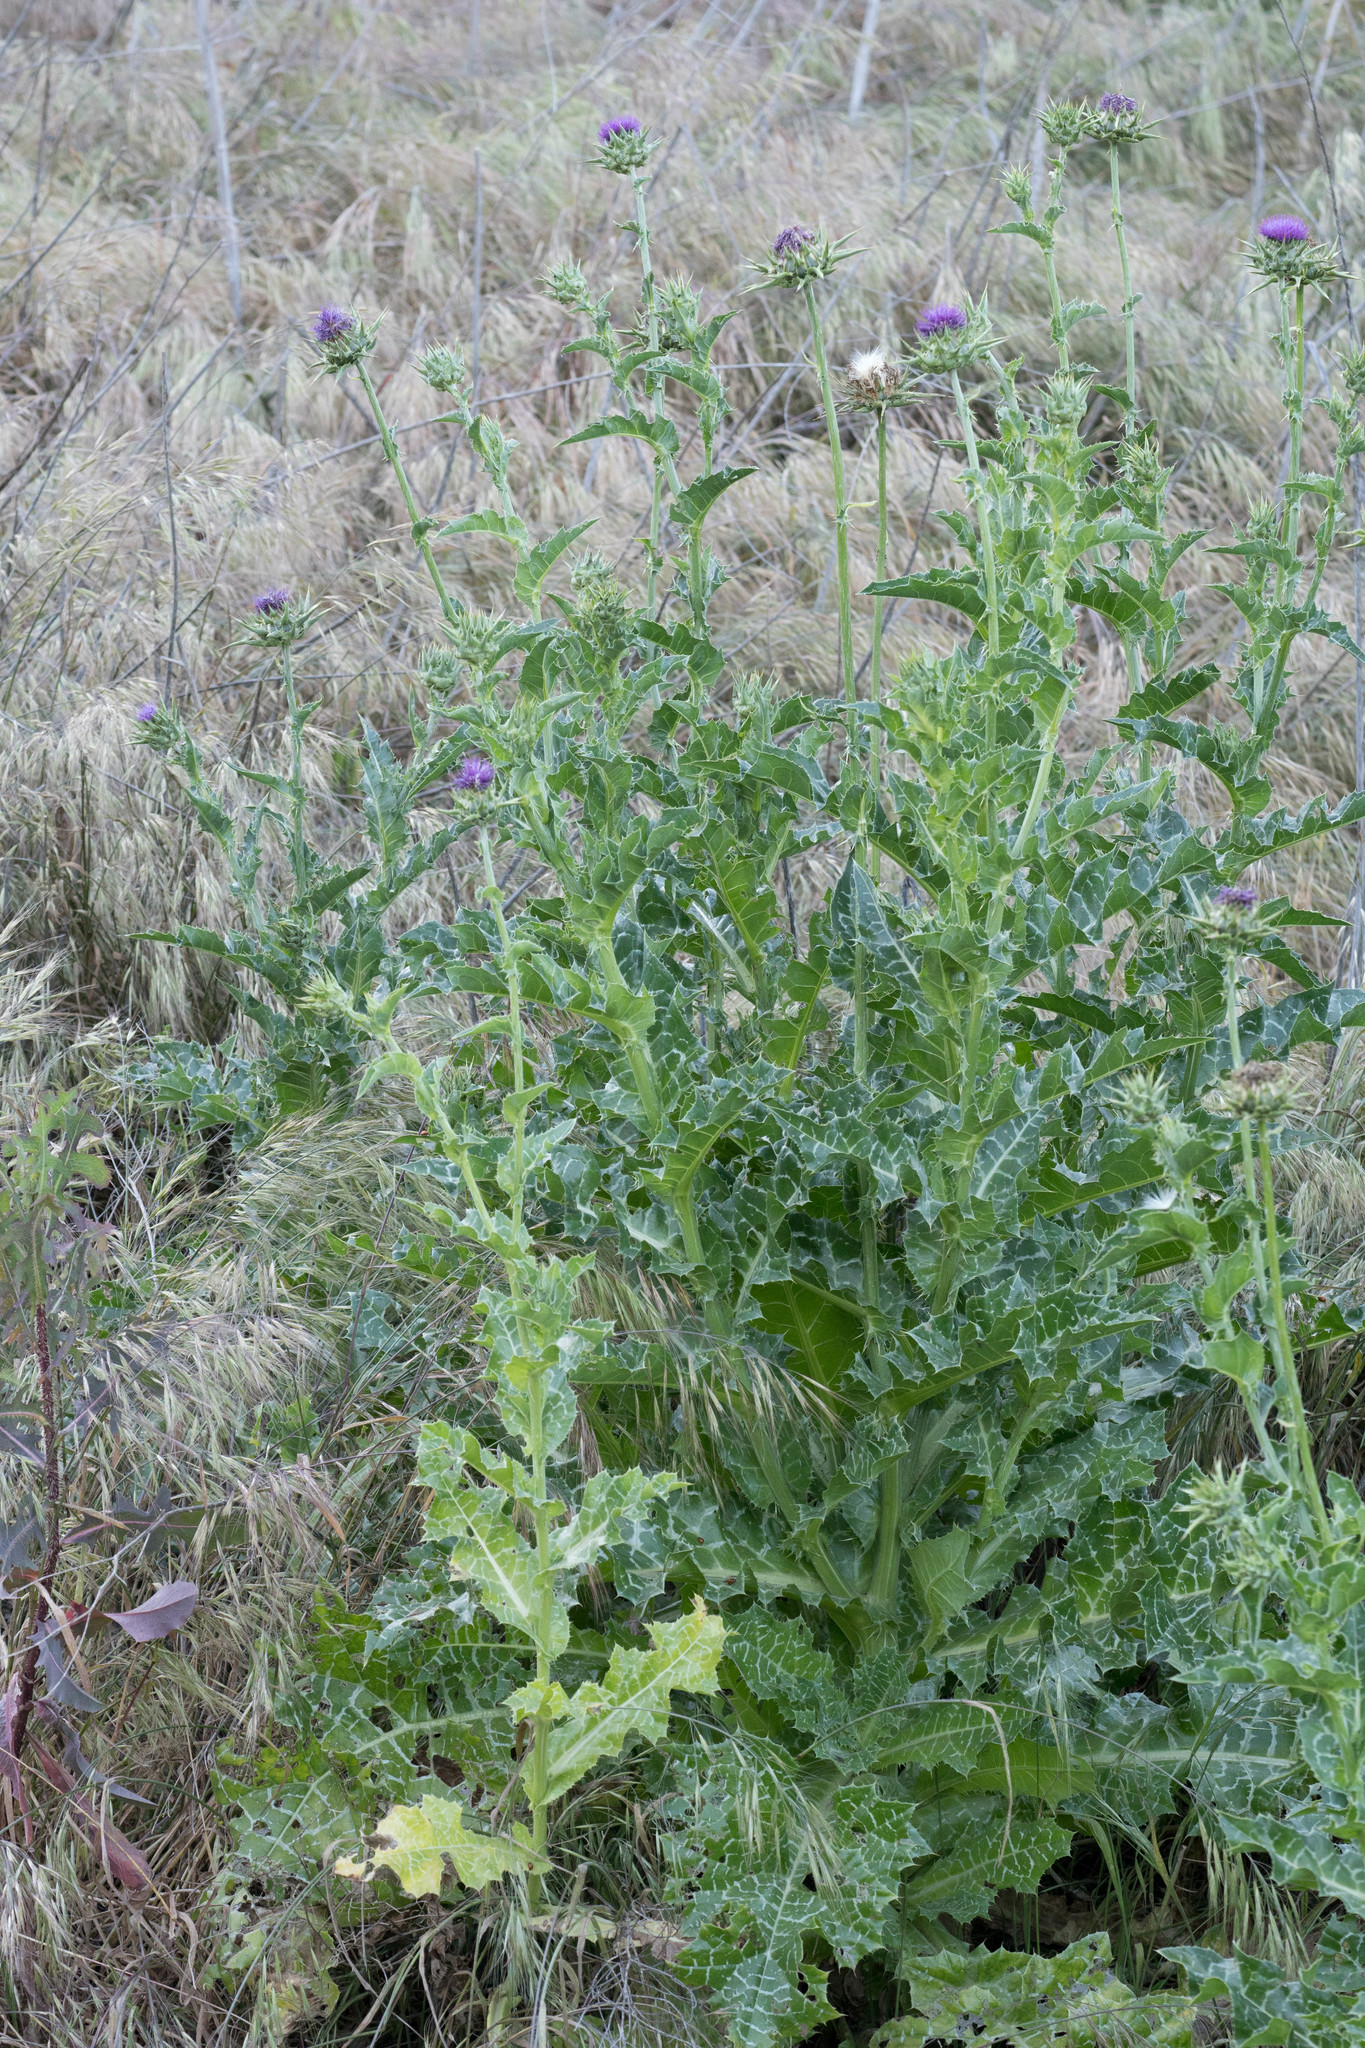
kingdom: Plantae
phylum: Tracheophyta
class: Magnoliopsida
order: Asterales
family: Asteraceae
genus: Silybum
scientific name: Silybum marianum
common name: Milk thistle
